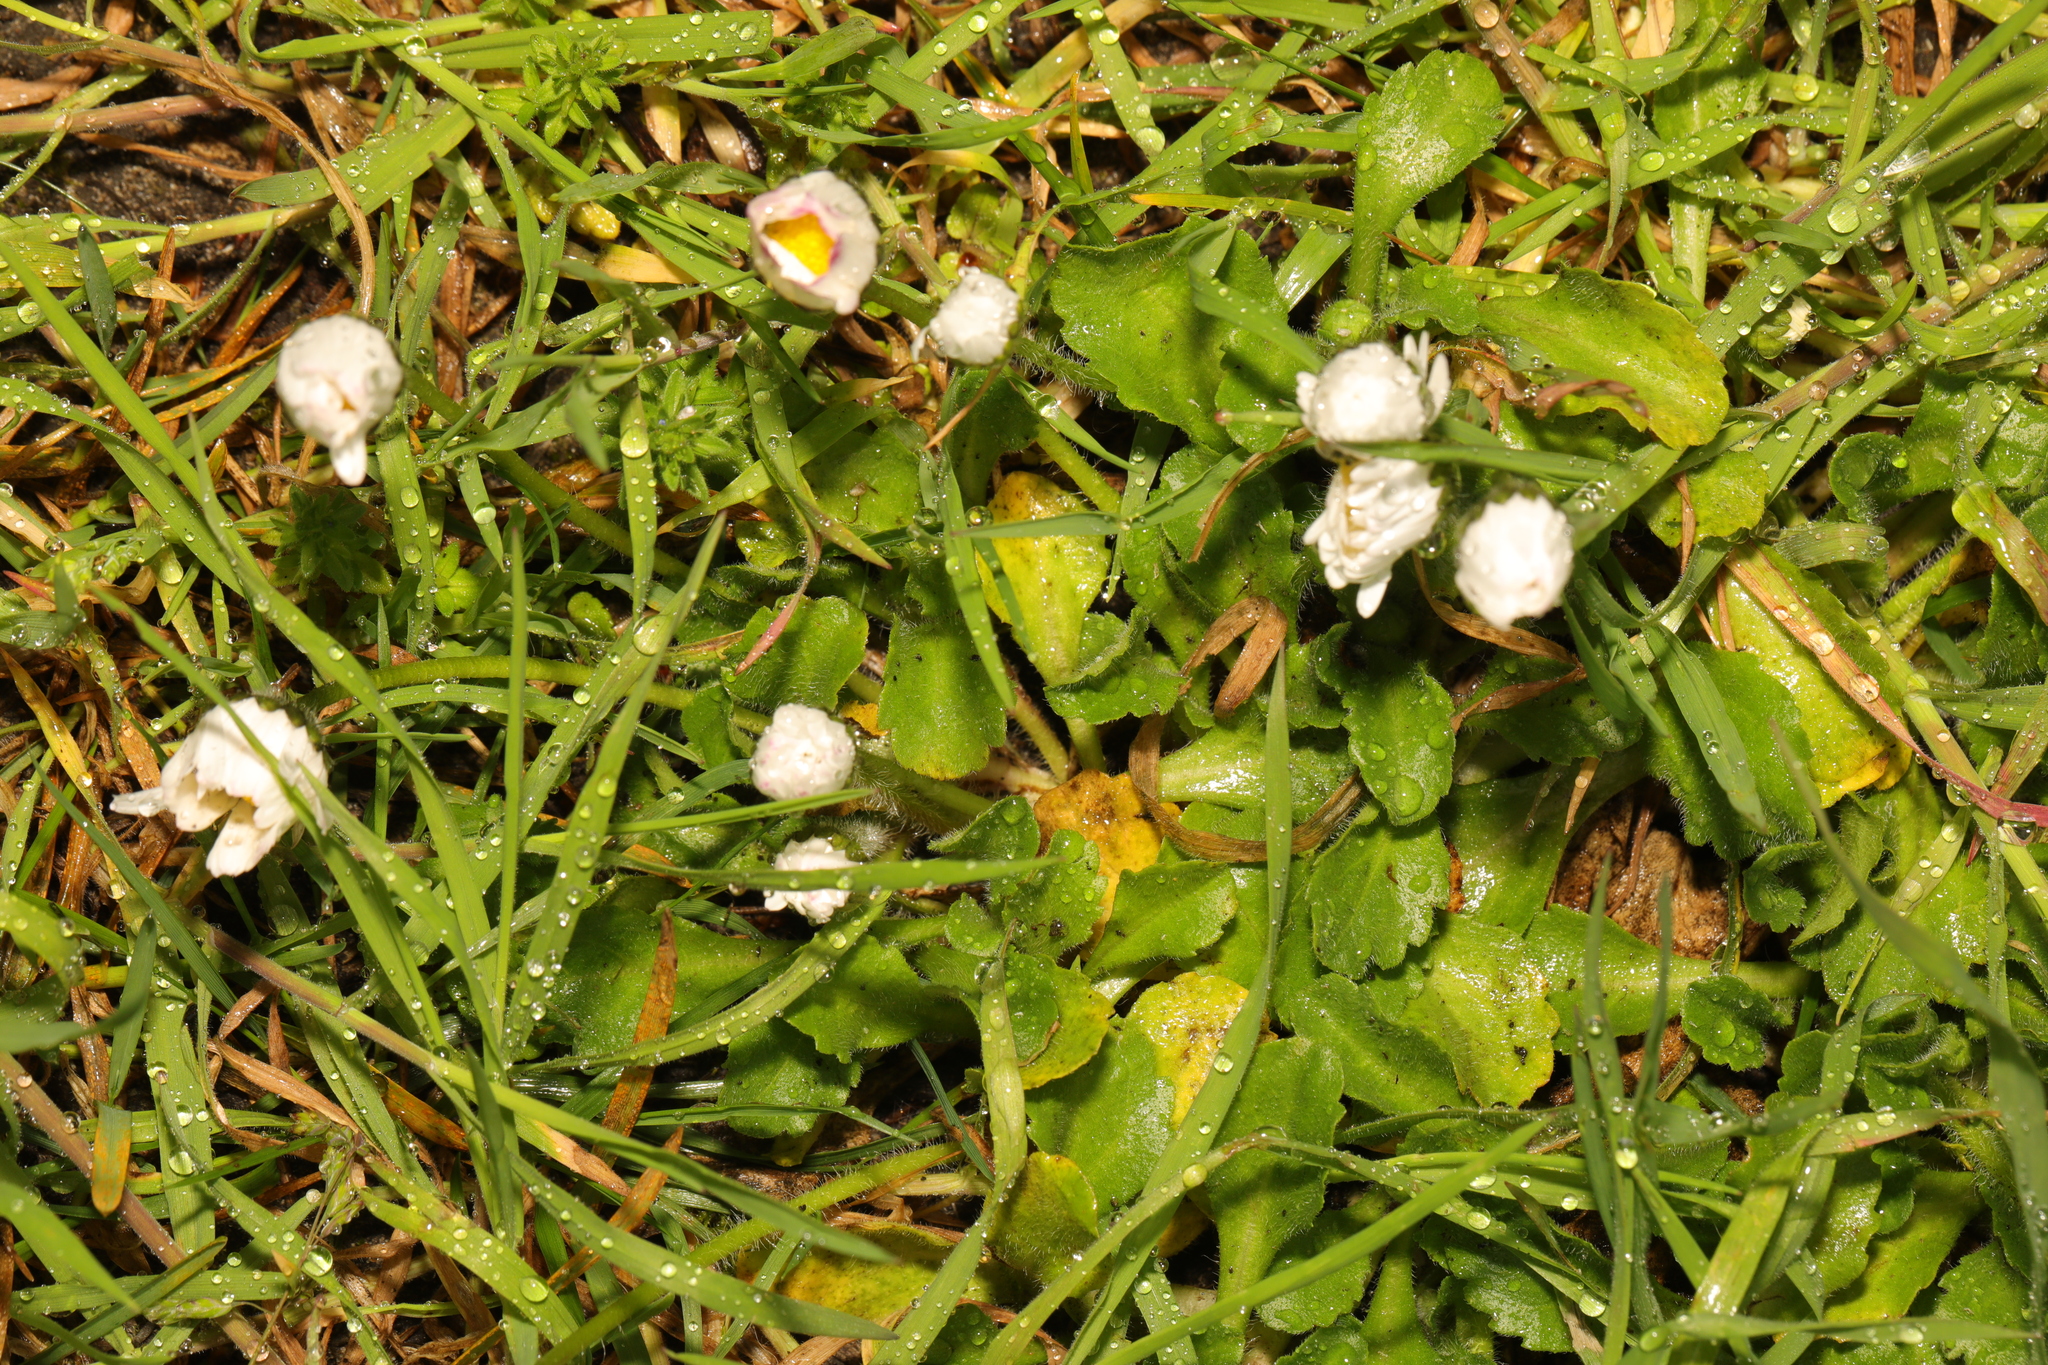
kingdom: Plantae
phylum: Tracheophyta
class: Magnoliopsida
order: Asterales
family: Asteraceae
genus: Bellis
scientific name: Bellis perennis
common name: Lawndaisy
